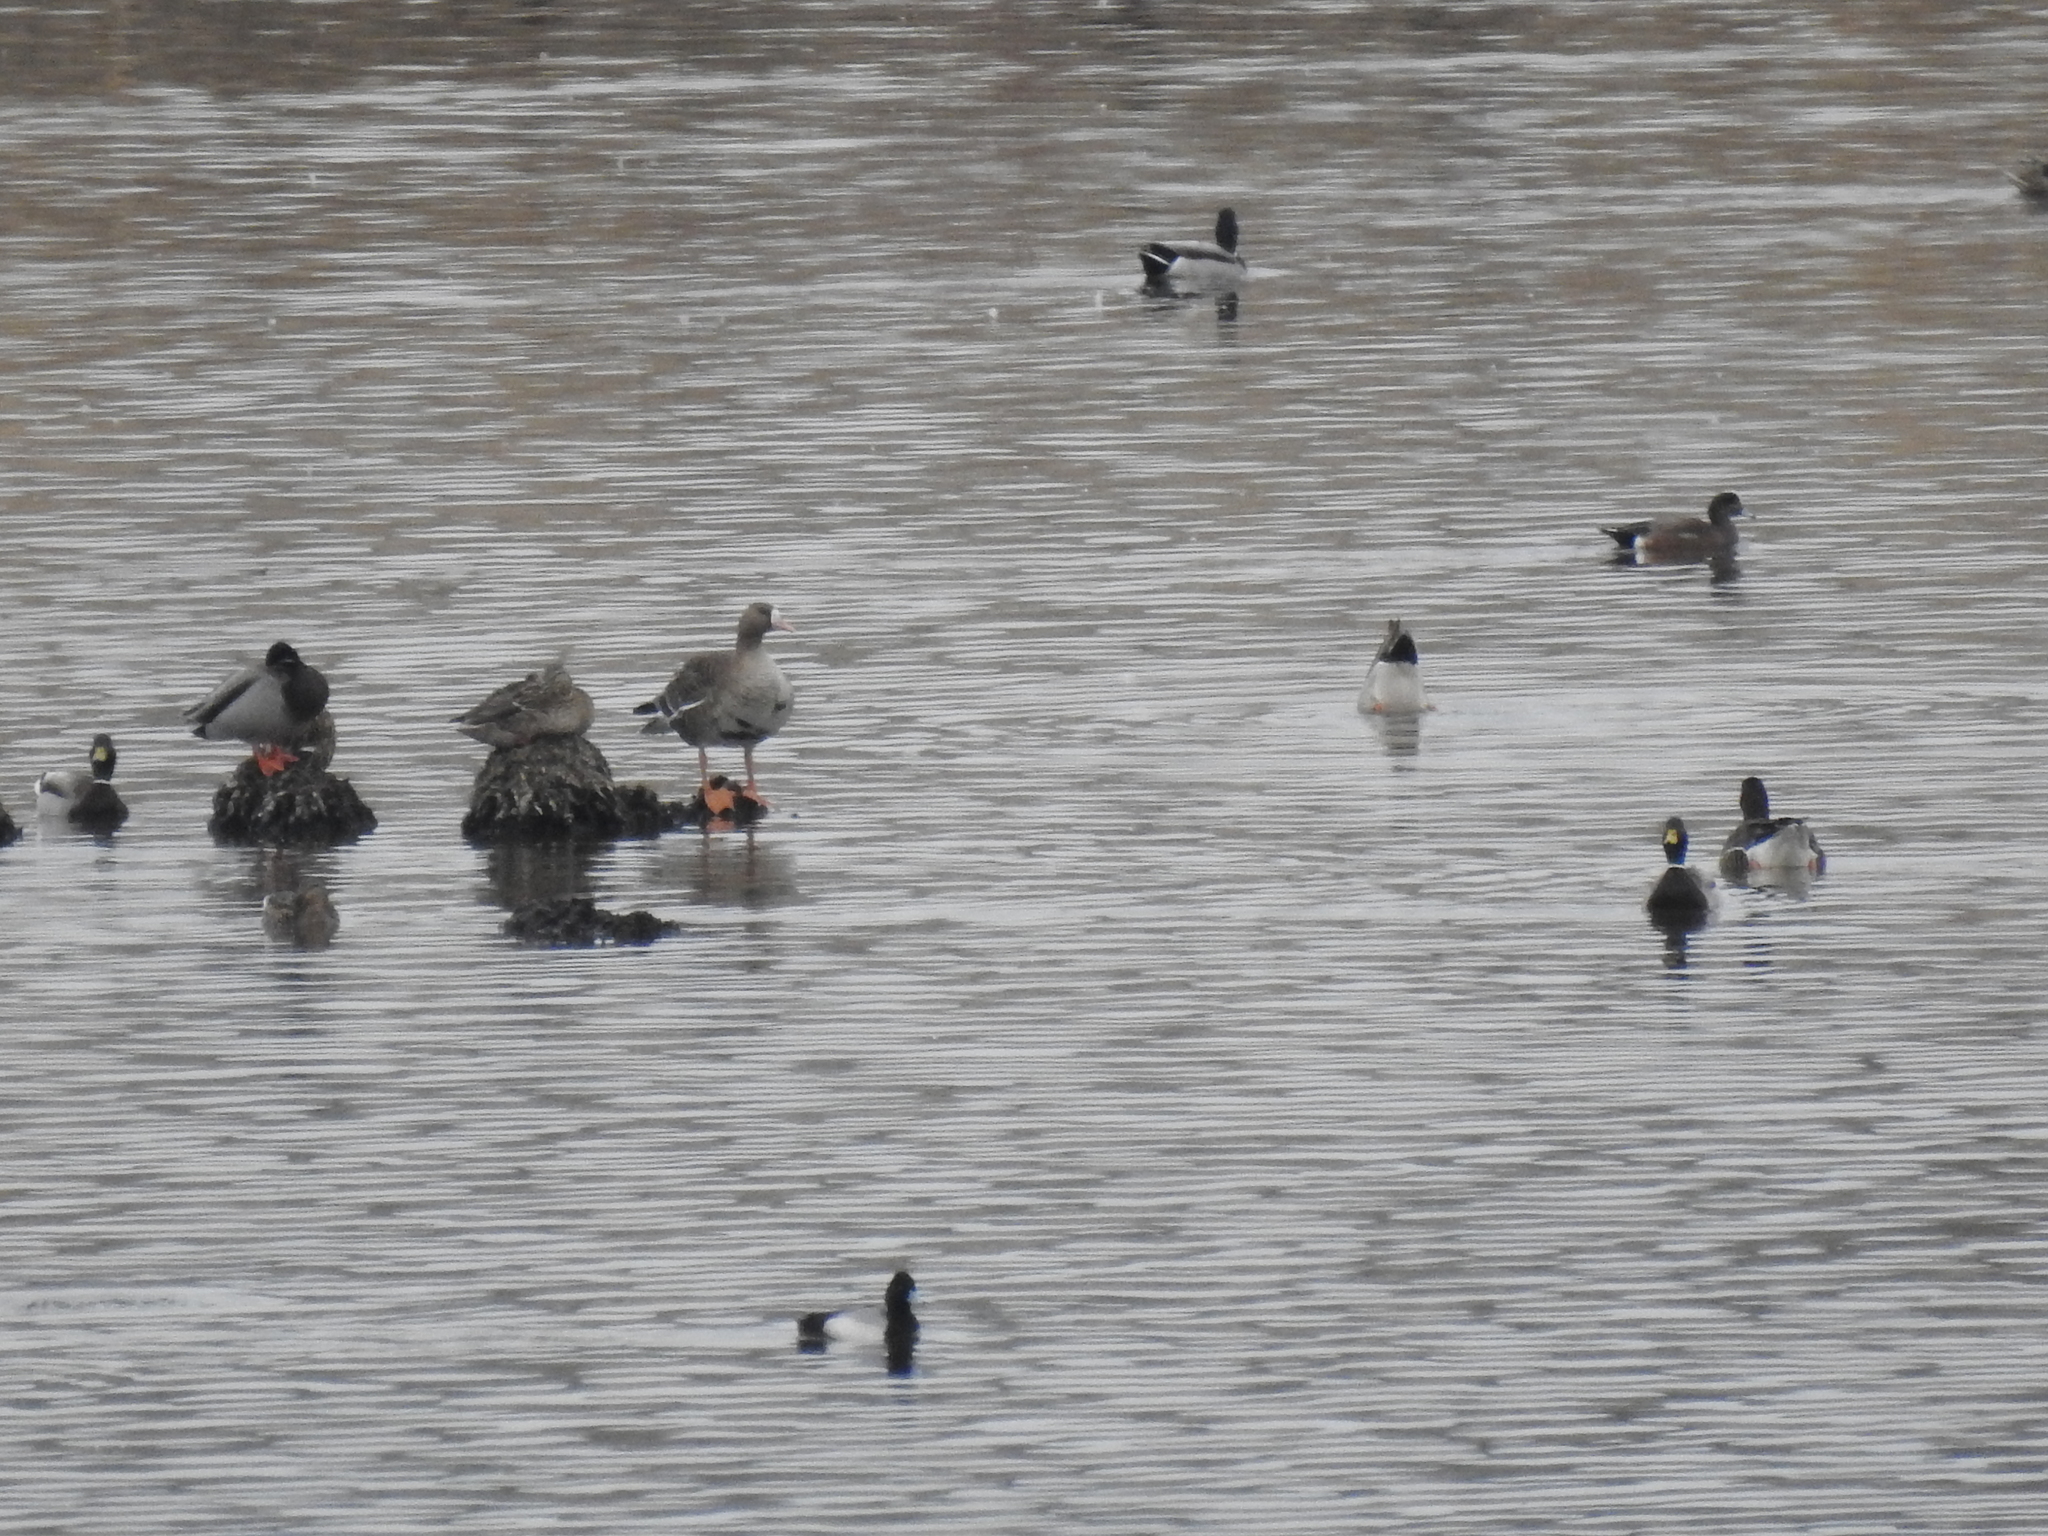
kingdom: Animalia
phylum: Chordata
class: Aves
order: Anseriformes
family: Anatidae
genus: Anser
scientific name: Anser albifrons
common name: Greater white-fronted goose
